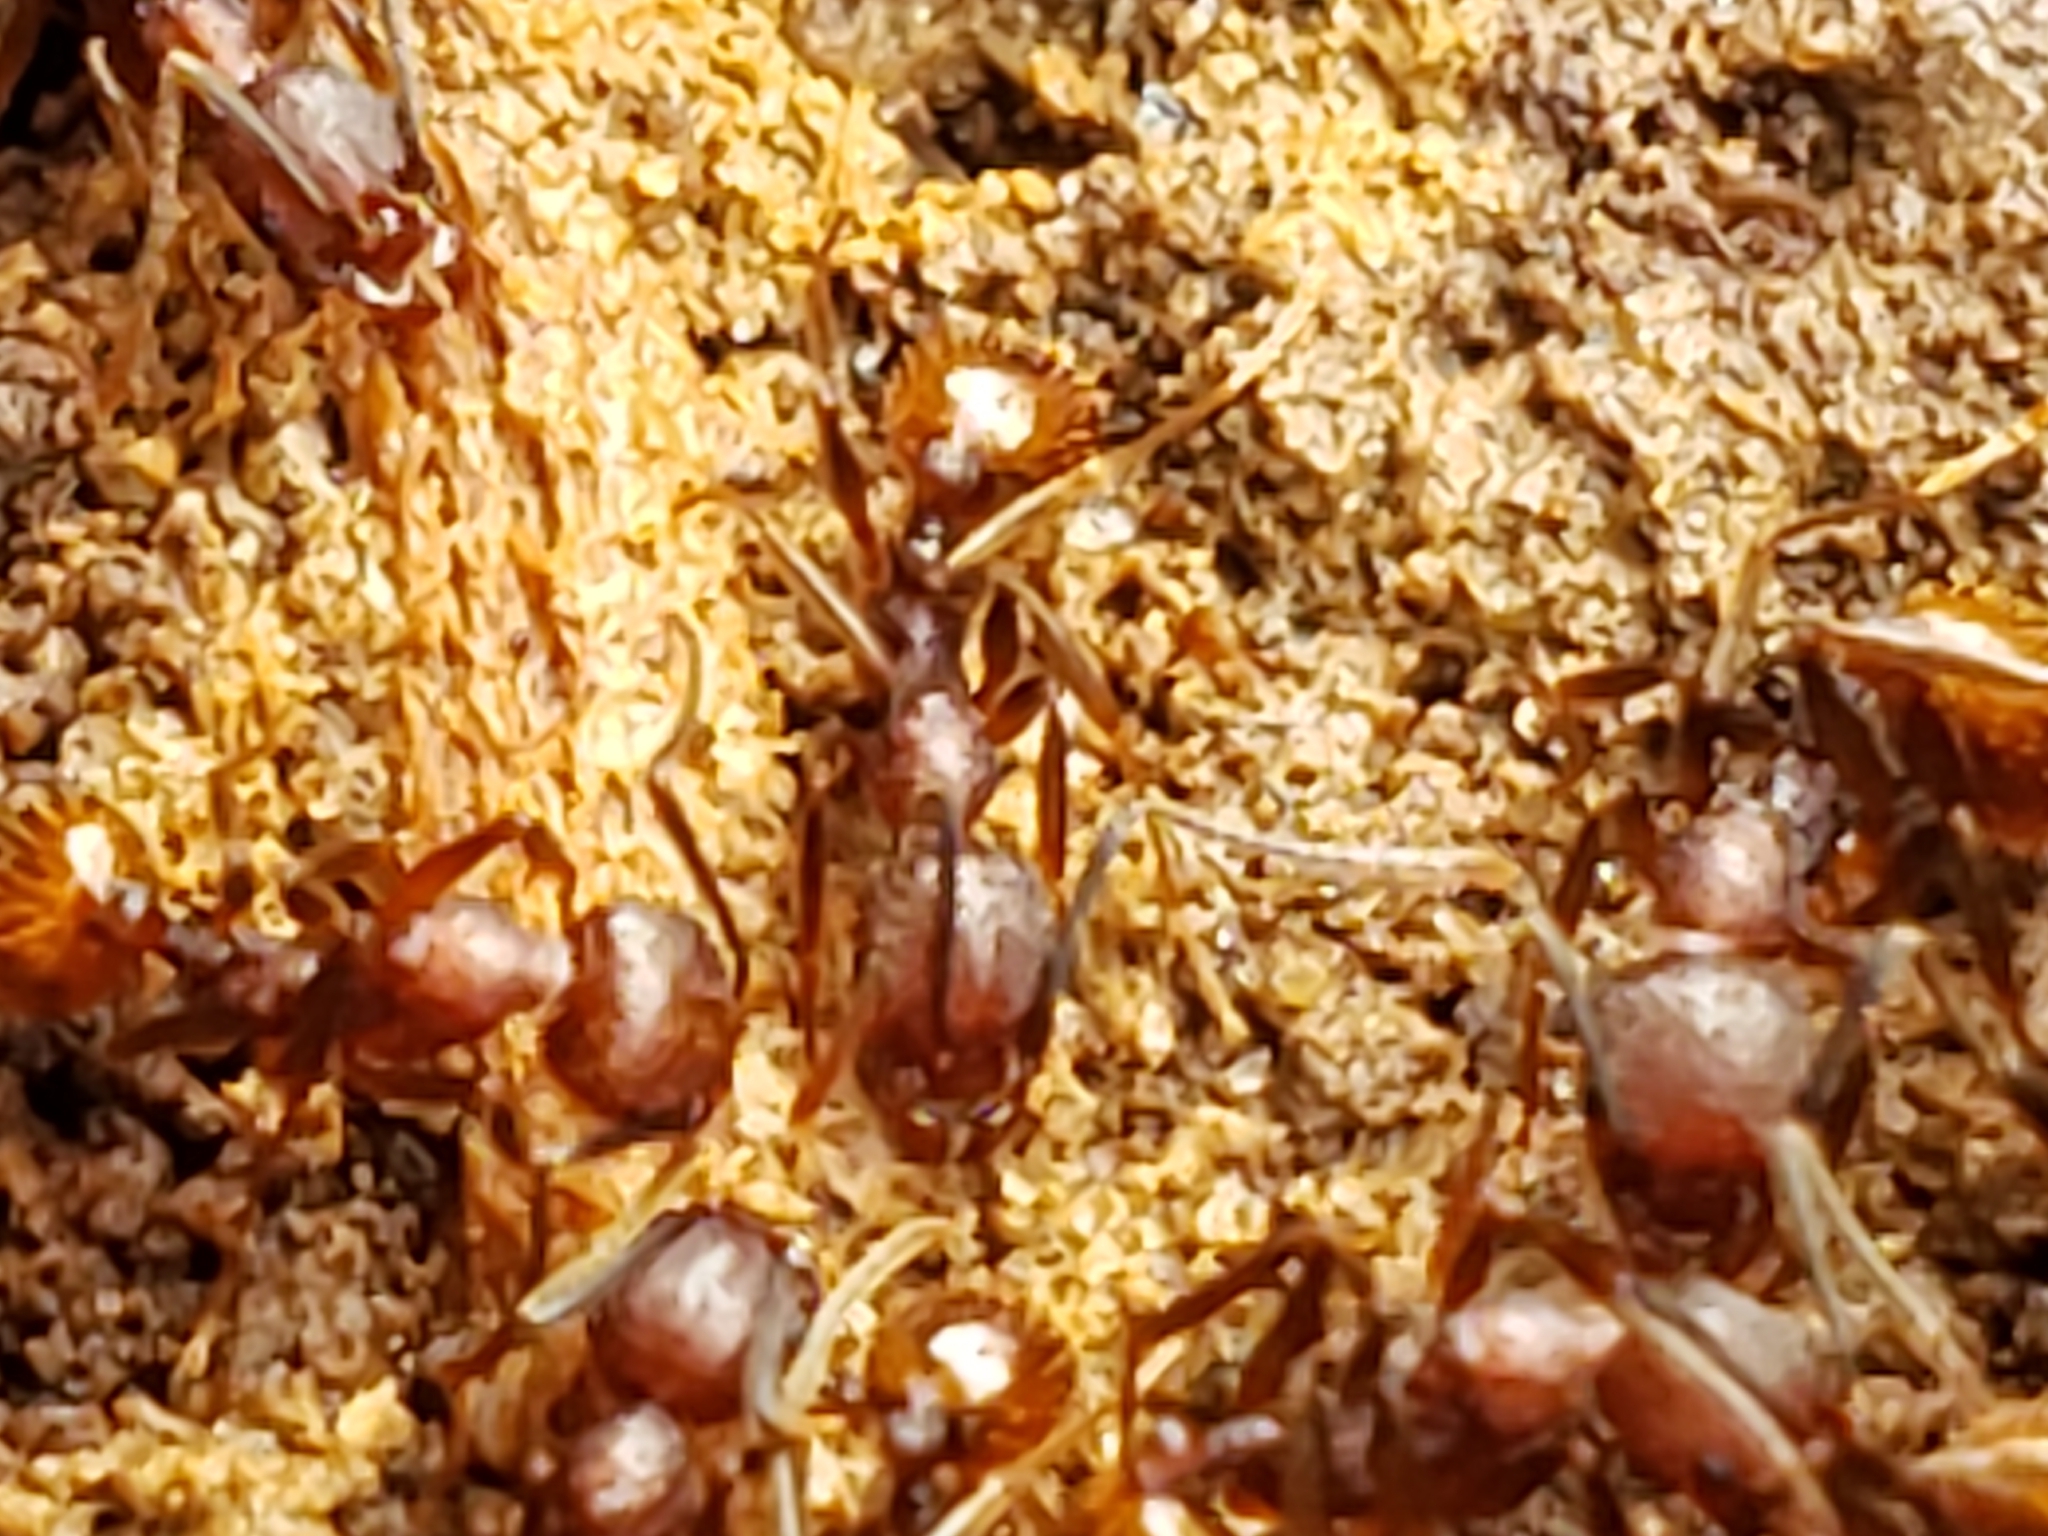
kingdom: Animalia
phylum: Arthropoda
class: Insecta
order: Hymenoptera
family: Formicidae
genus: Aphaenogaster
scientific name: Aphaenogaster fulva
